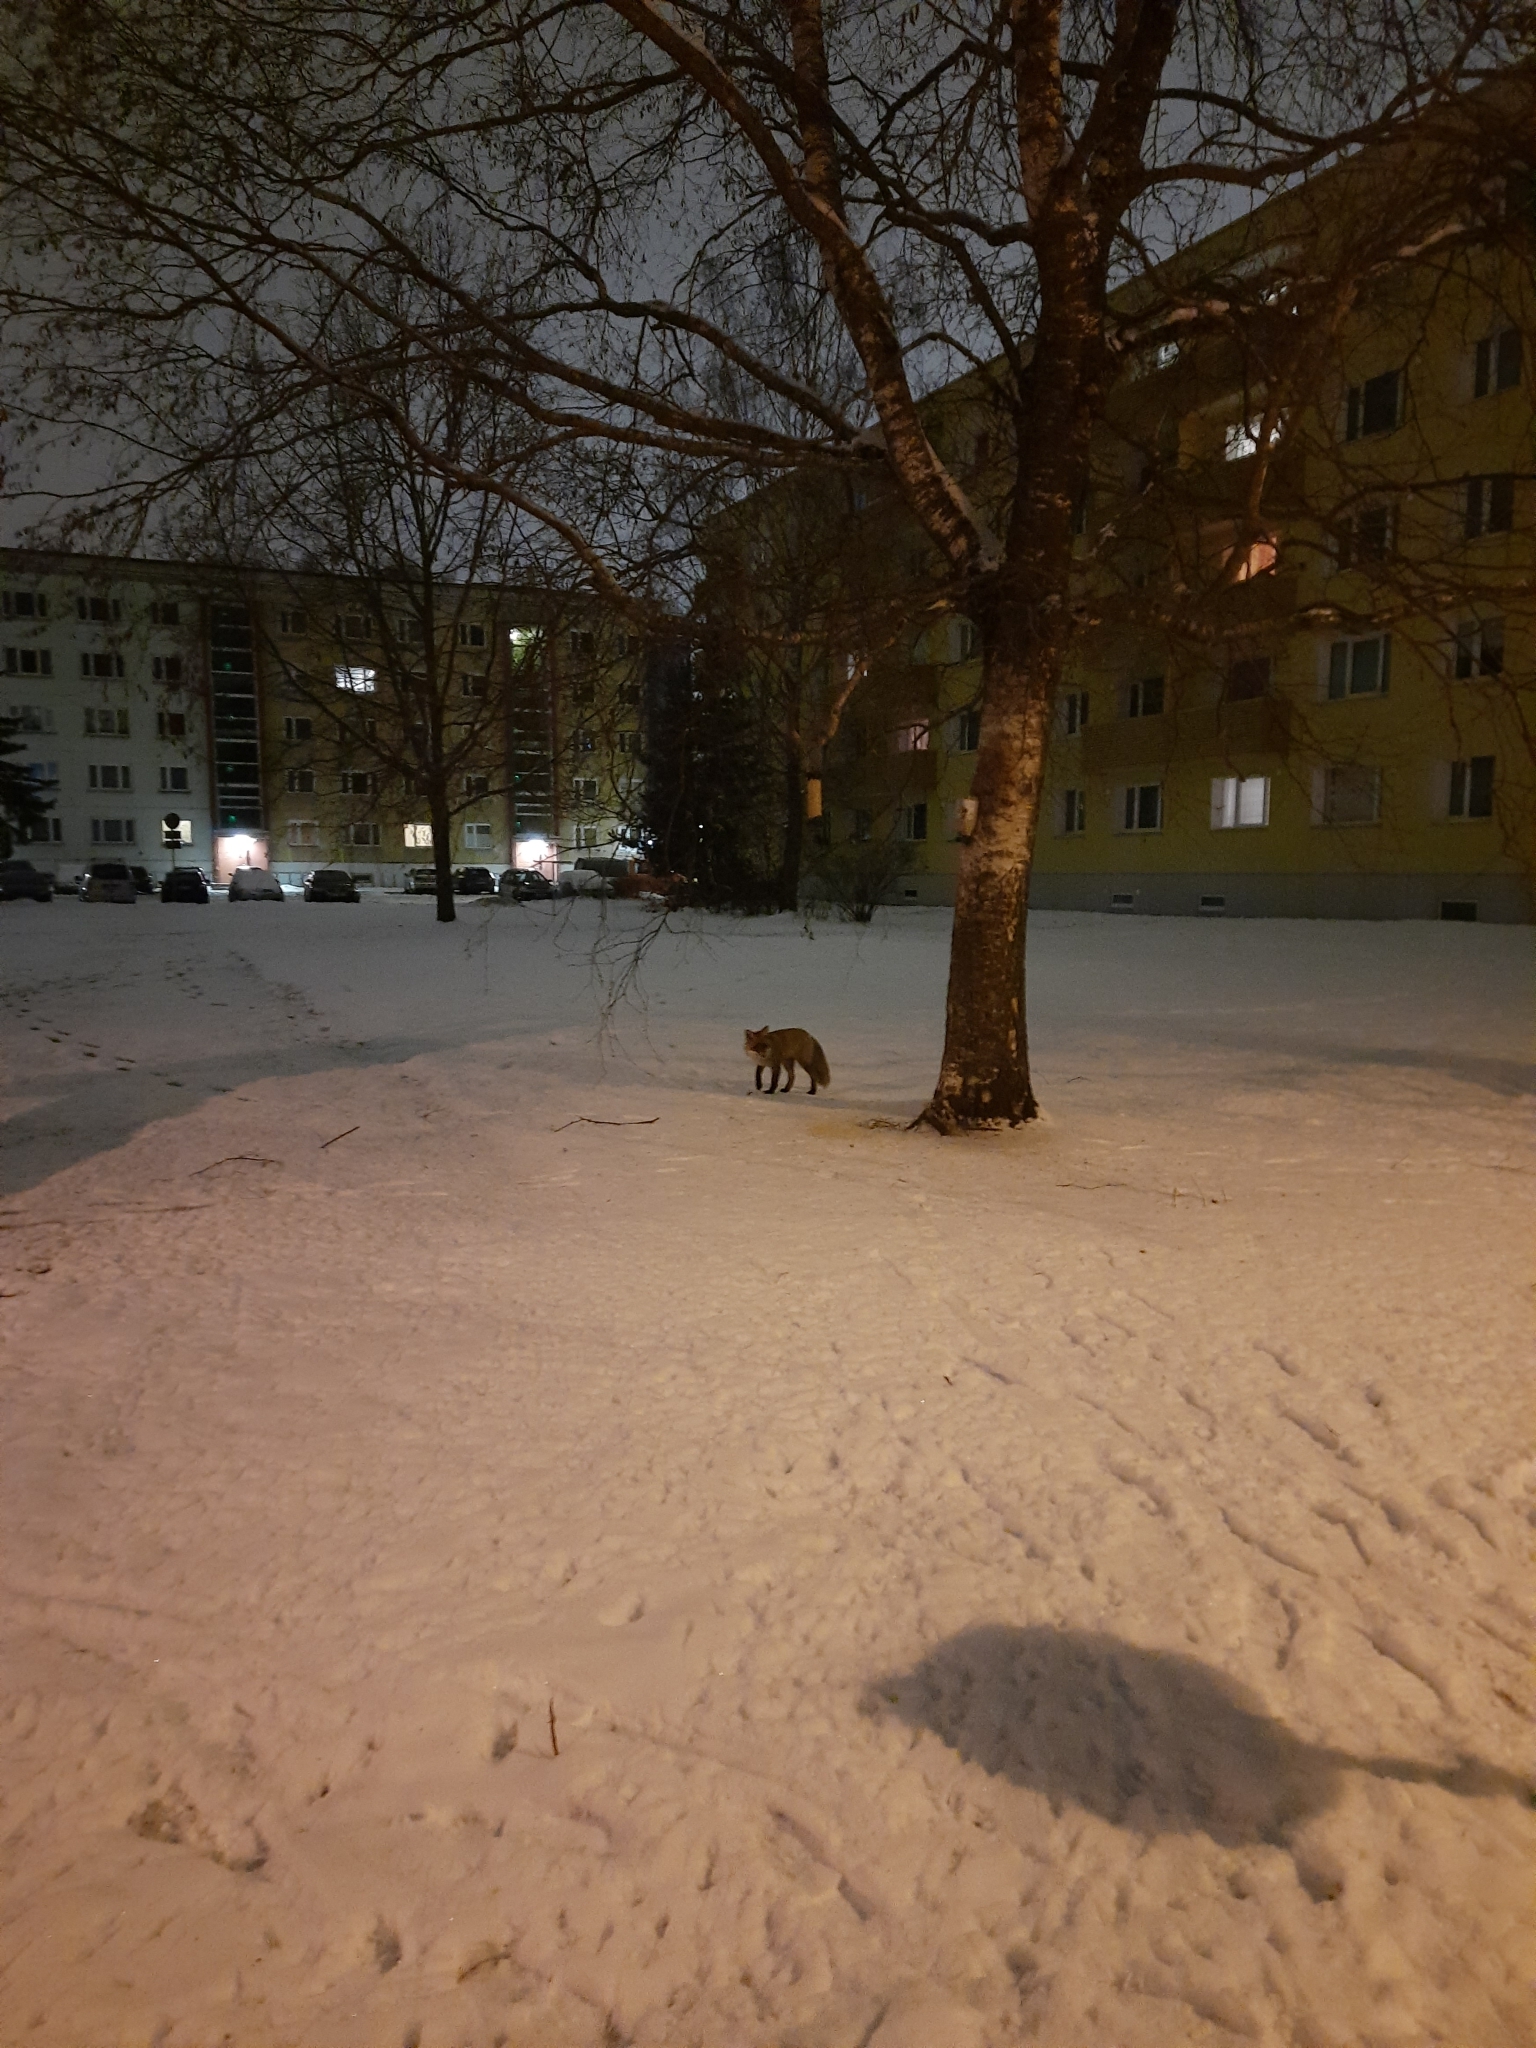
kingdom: Animalia
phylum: Chordata
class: Mammalia
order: Carnivora
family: Canidae
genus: Vulpes
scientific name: Vulpes vulpes
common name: Red fox
